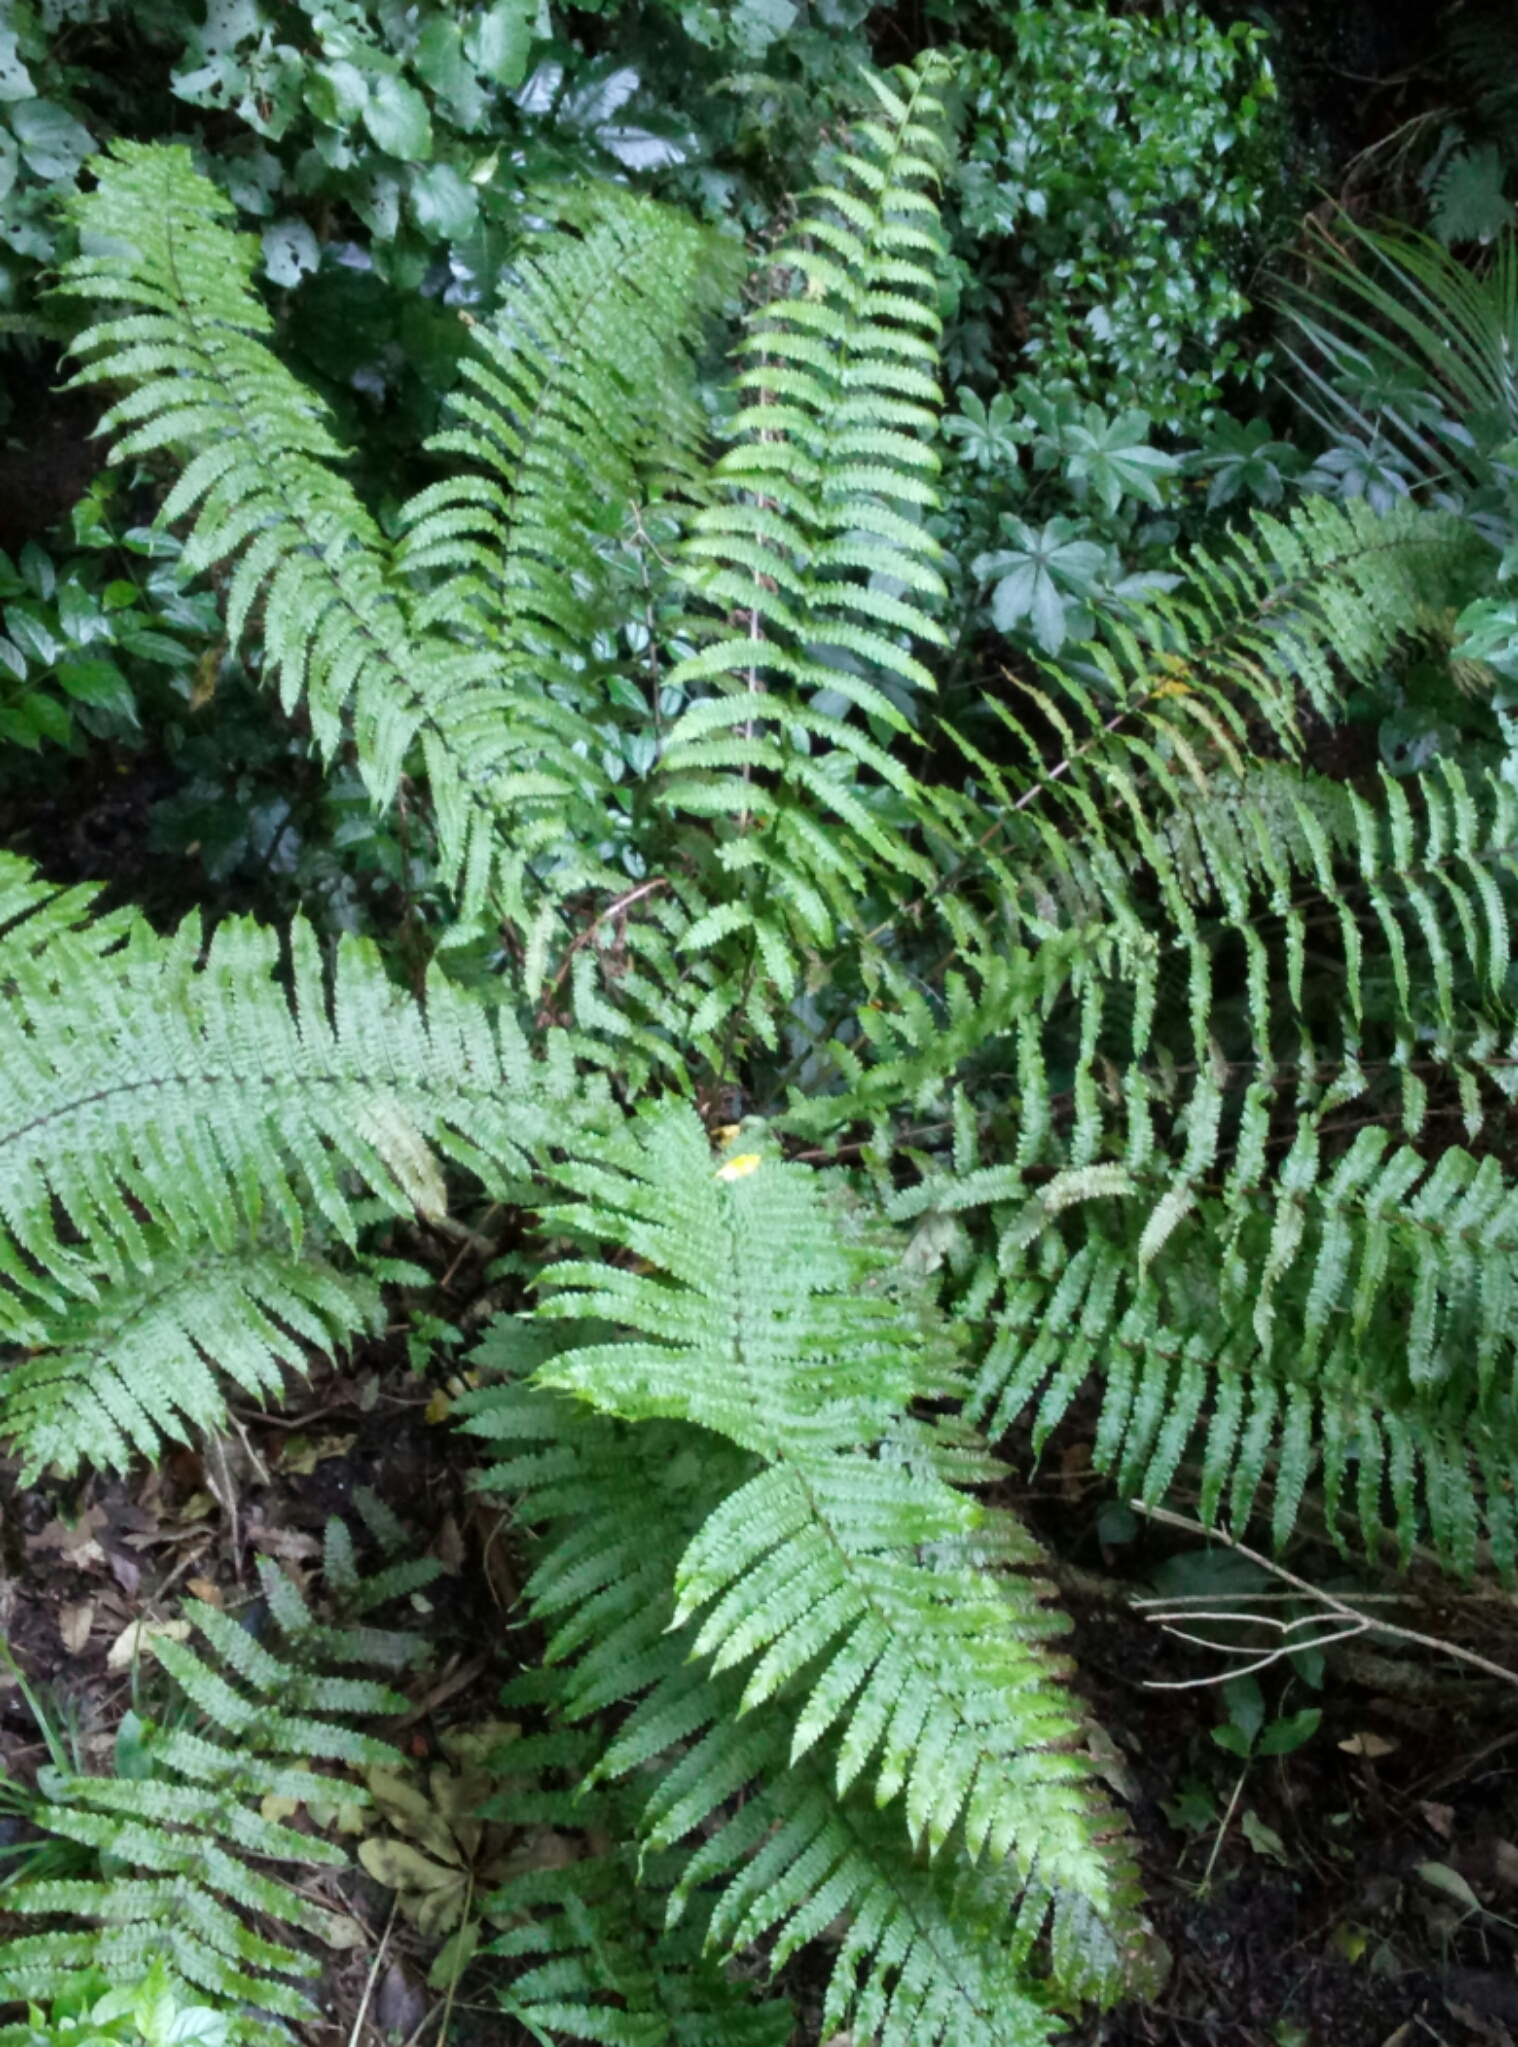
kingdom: Plantae
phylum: Tracheophyta
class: Polypodiopsida
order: Polypodiales
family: Thelypteridaceae
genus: Pakau
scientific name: Pakau pennigera
